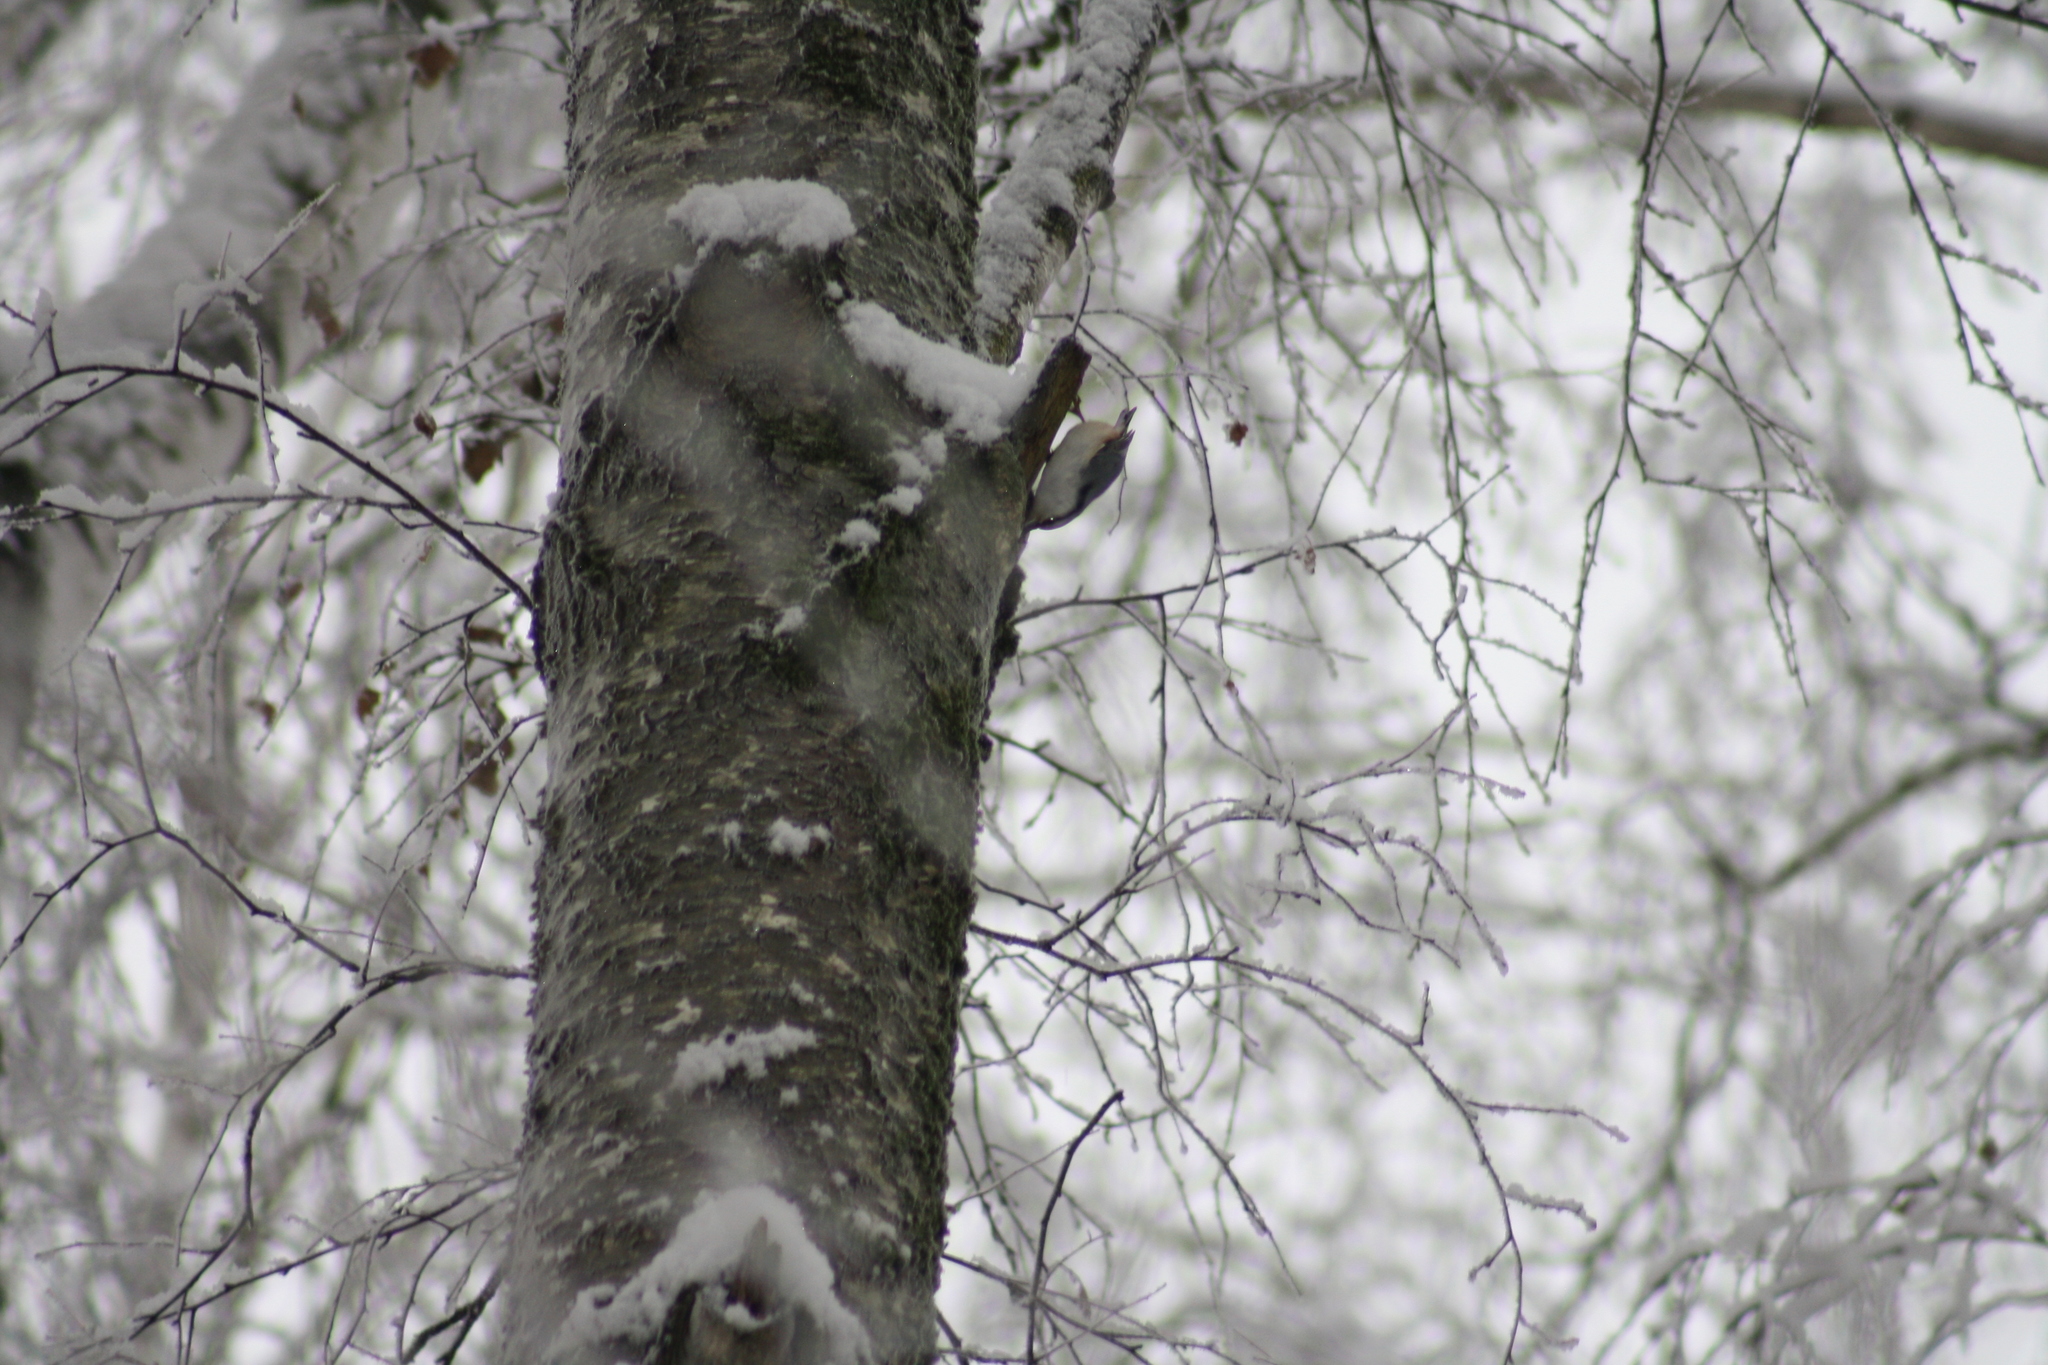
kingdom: Animalia
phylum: Chordata
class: Aves
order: Passeriformes
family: Sittidae
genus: Sitta
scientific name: Sitta europaea
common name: Eurasian nuthatch
